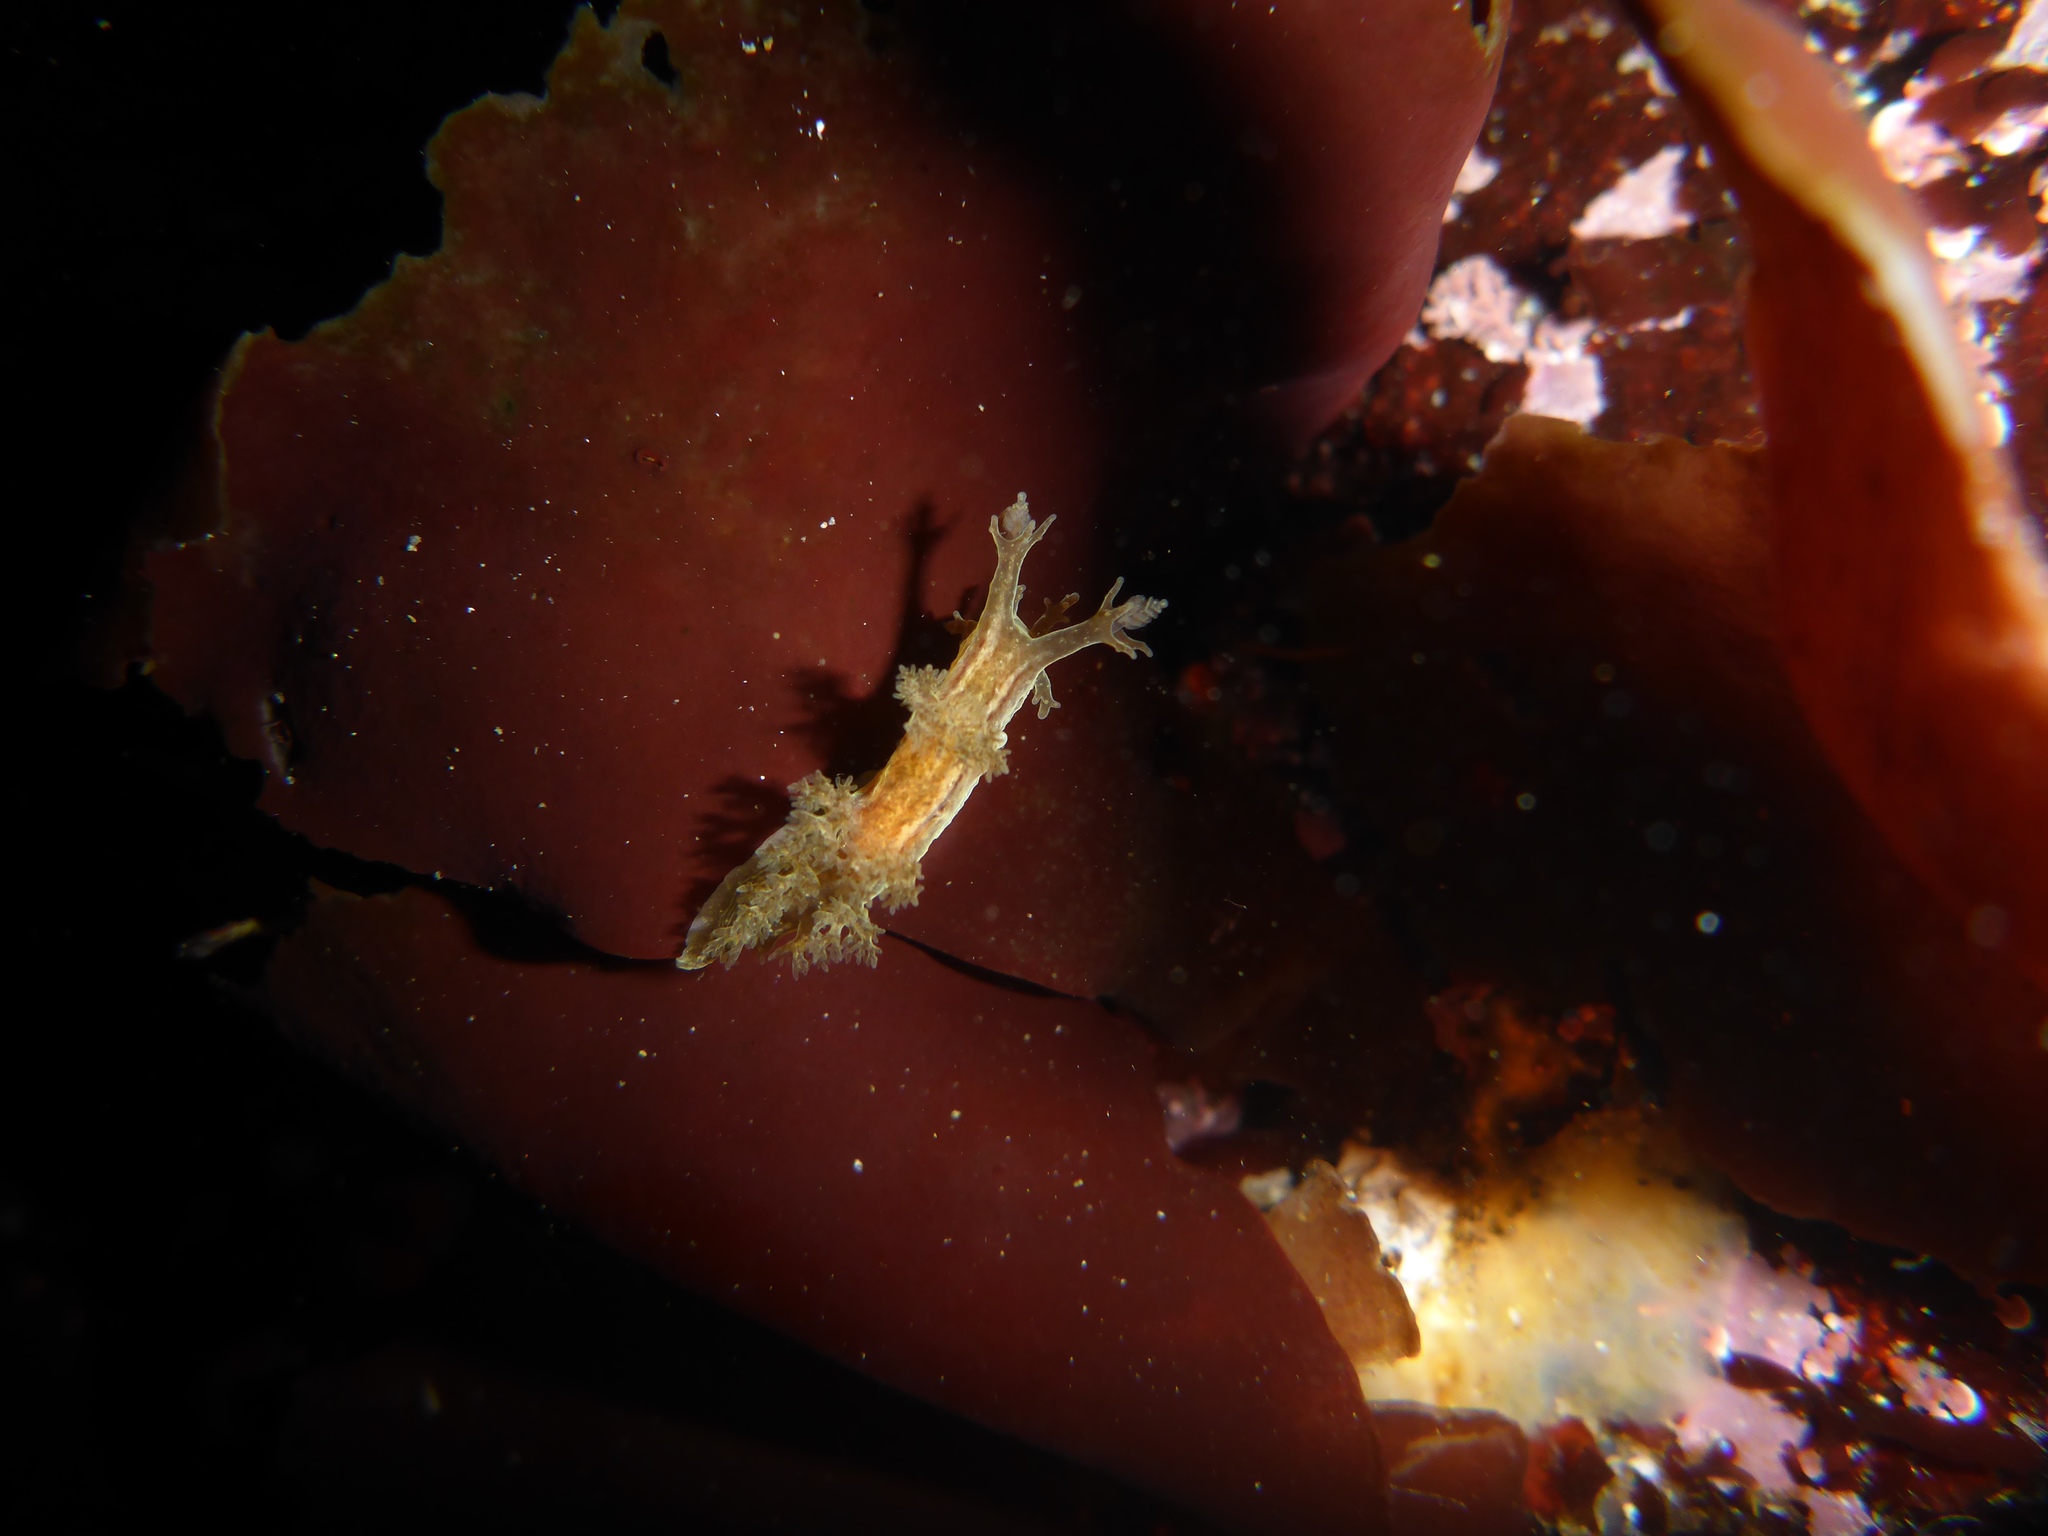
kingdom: Animalia
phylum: Mollusca
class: Gastropoda
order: Nudibranchia
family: Dendronotidae
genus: Dendronotus
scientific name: Dendronotus subramosus
